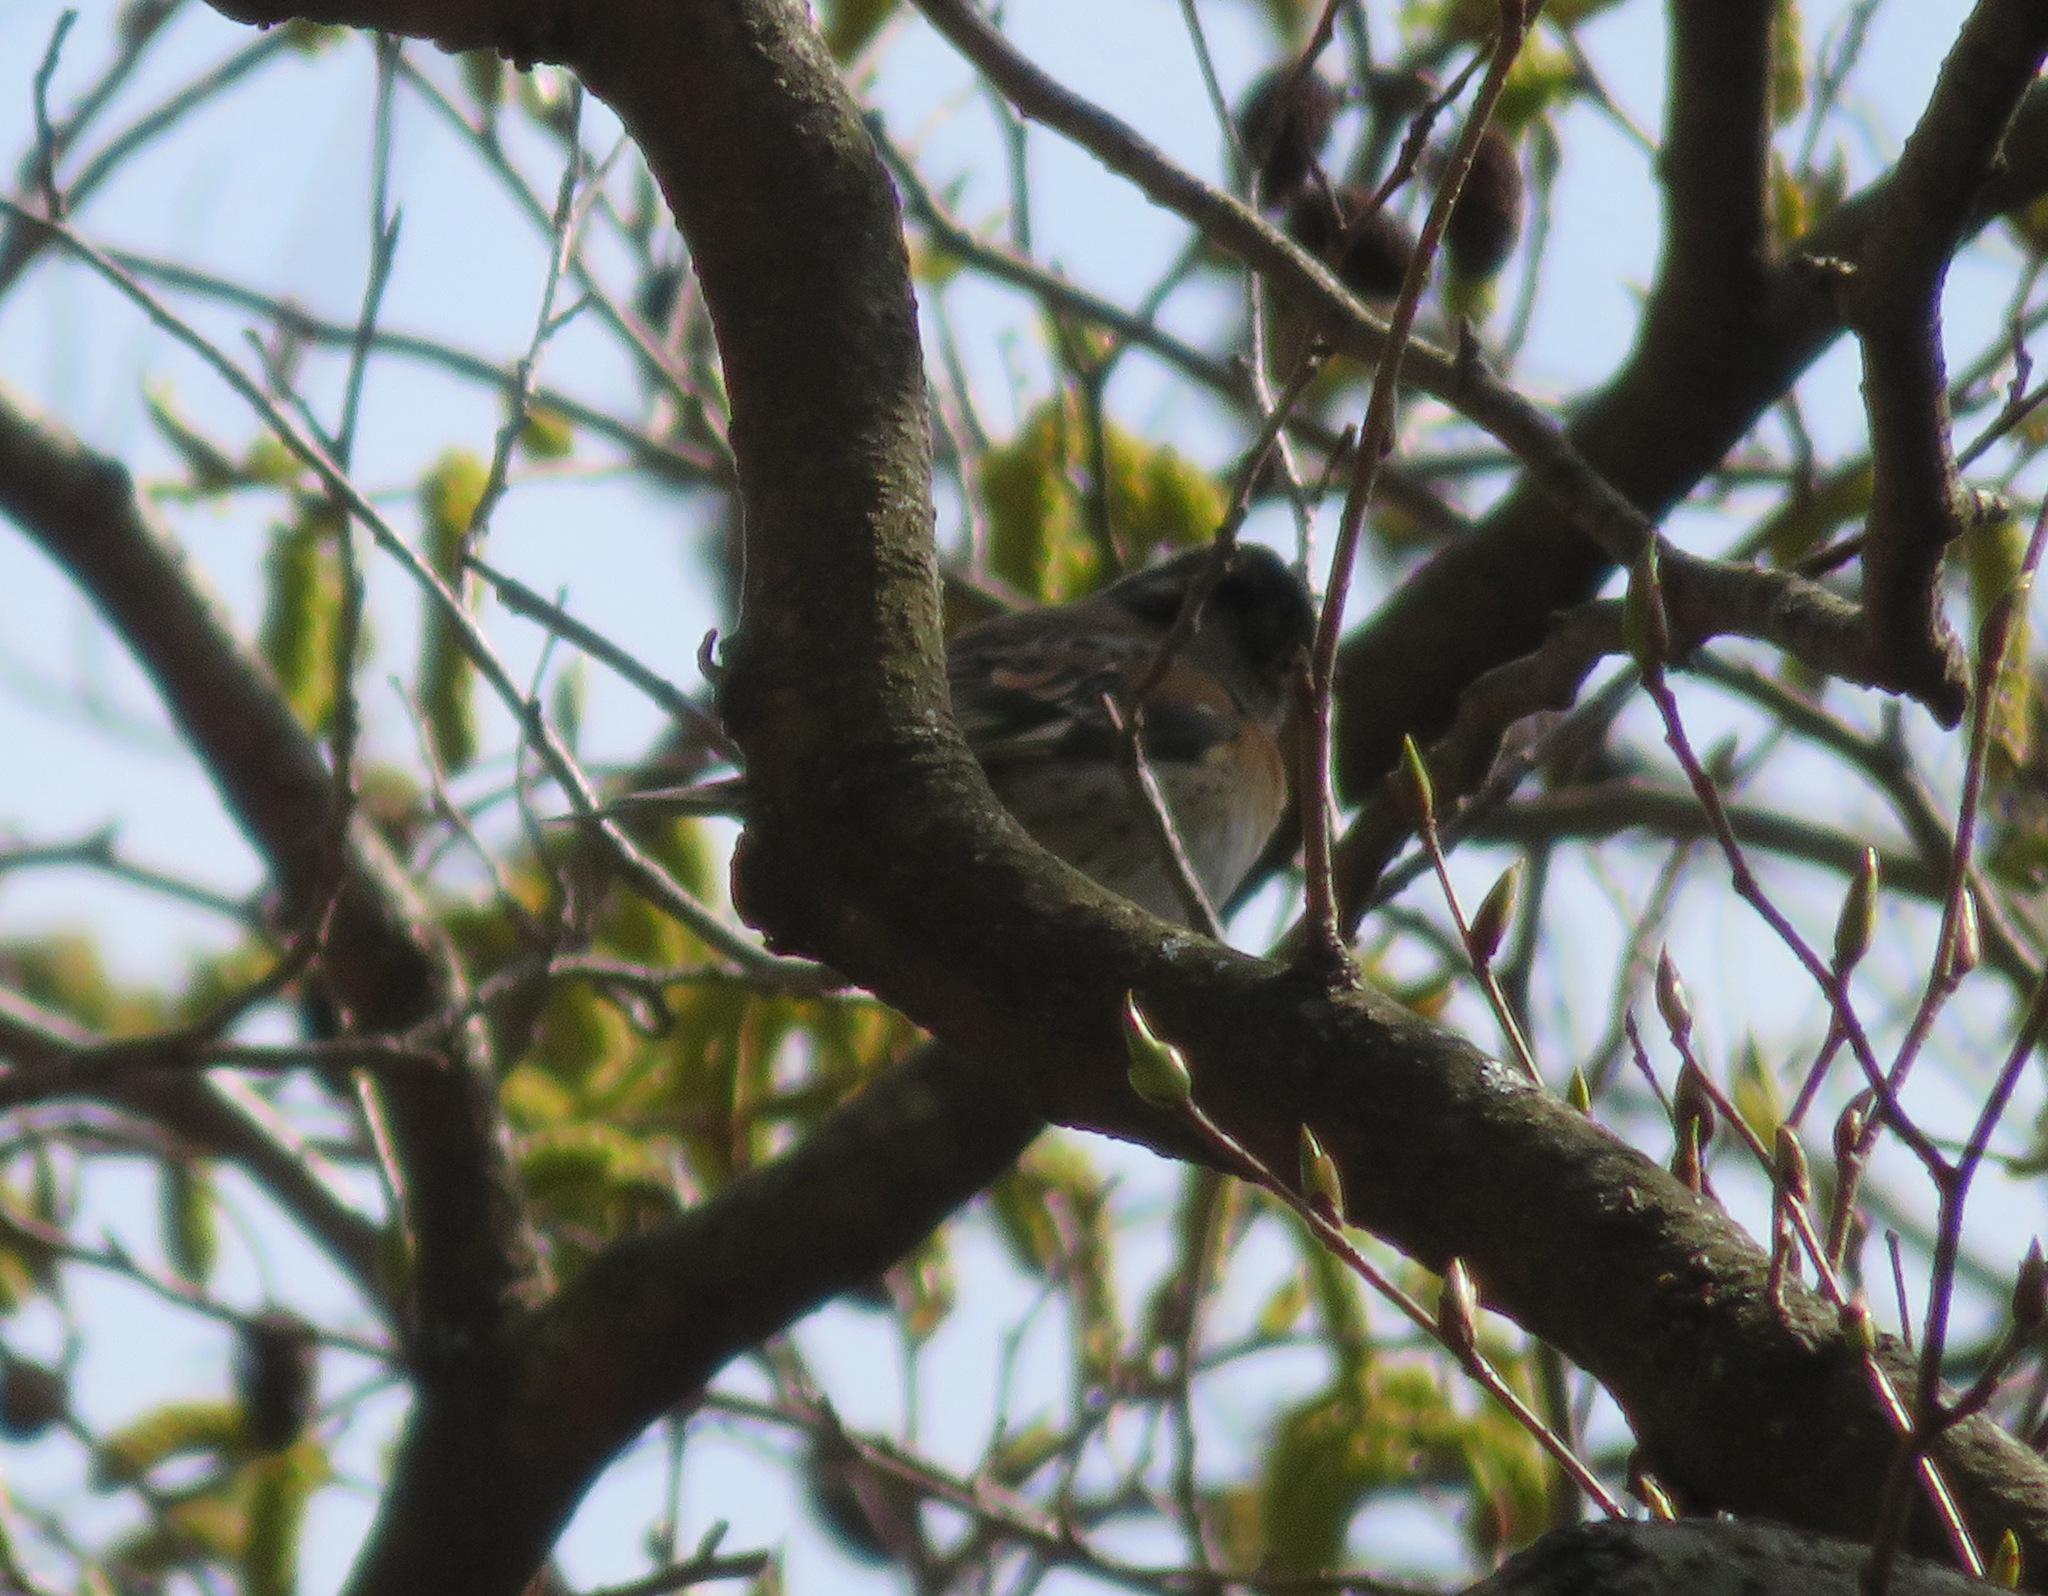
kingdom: Animalia
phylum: Chordata
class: Aves
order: Passeriformes
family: Fringillidae
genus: Fringilla
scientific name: Fringilla montifringilla
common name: Brambling
